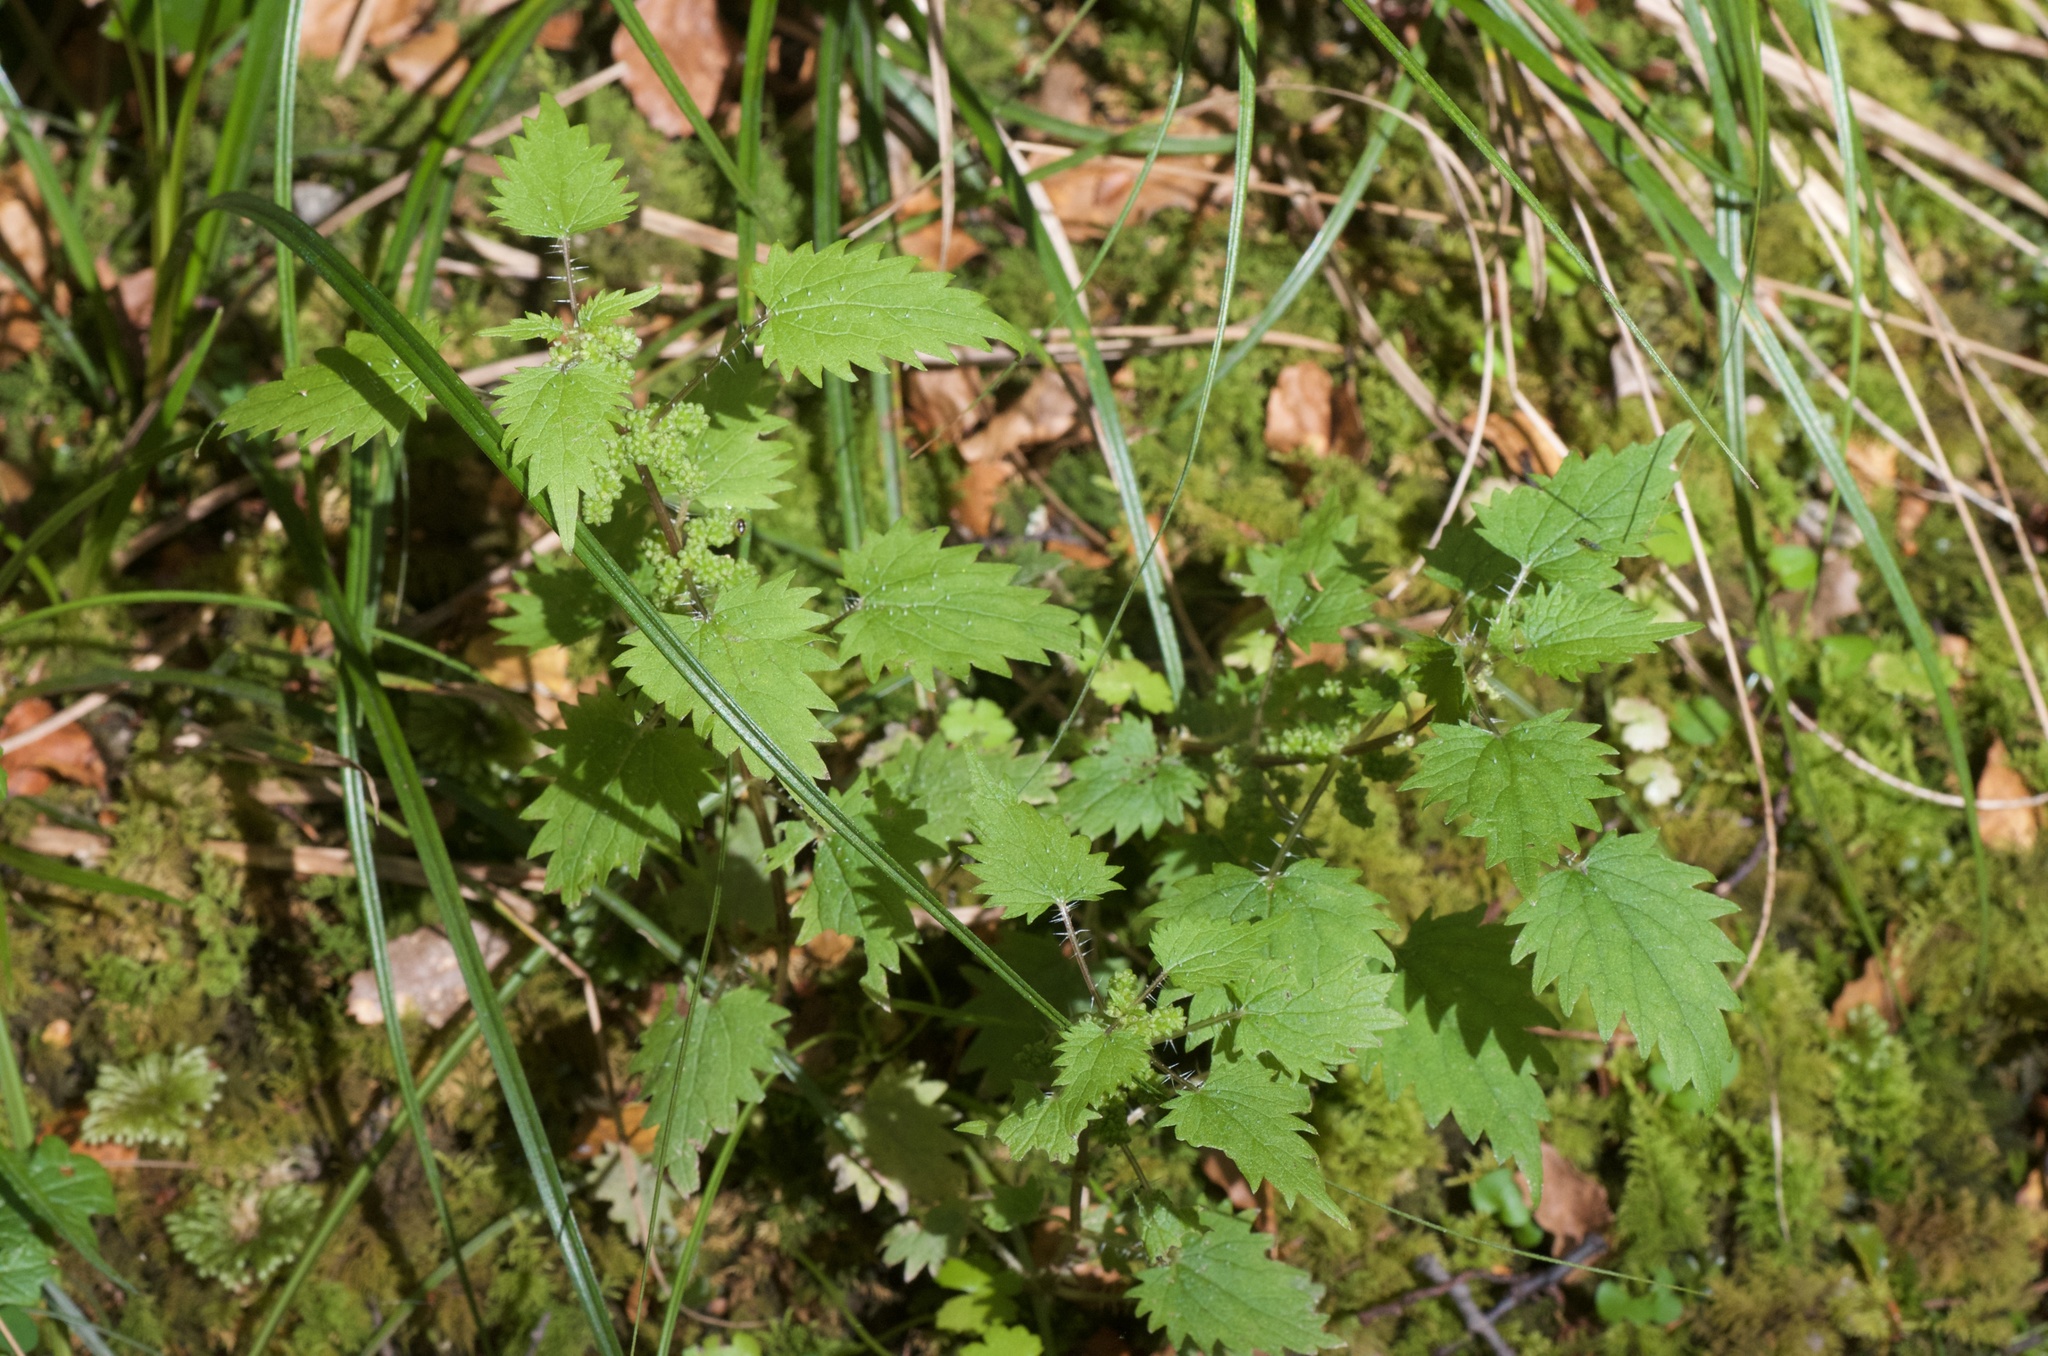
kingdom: Plantae
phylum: Tracheophyta
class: Magnoliopsida
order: Rosales
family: Urticaceae
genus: Urtica
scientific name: Urtica sykesii
